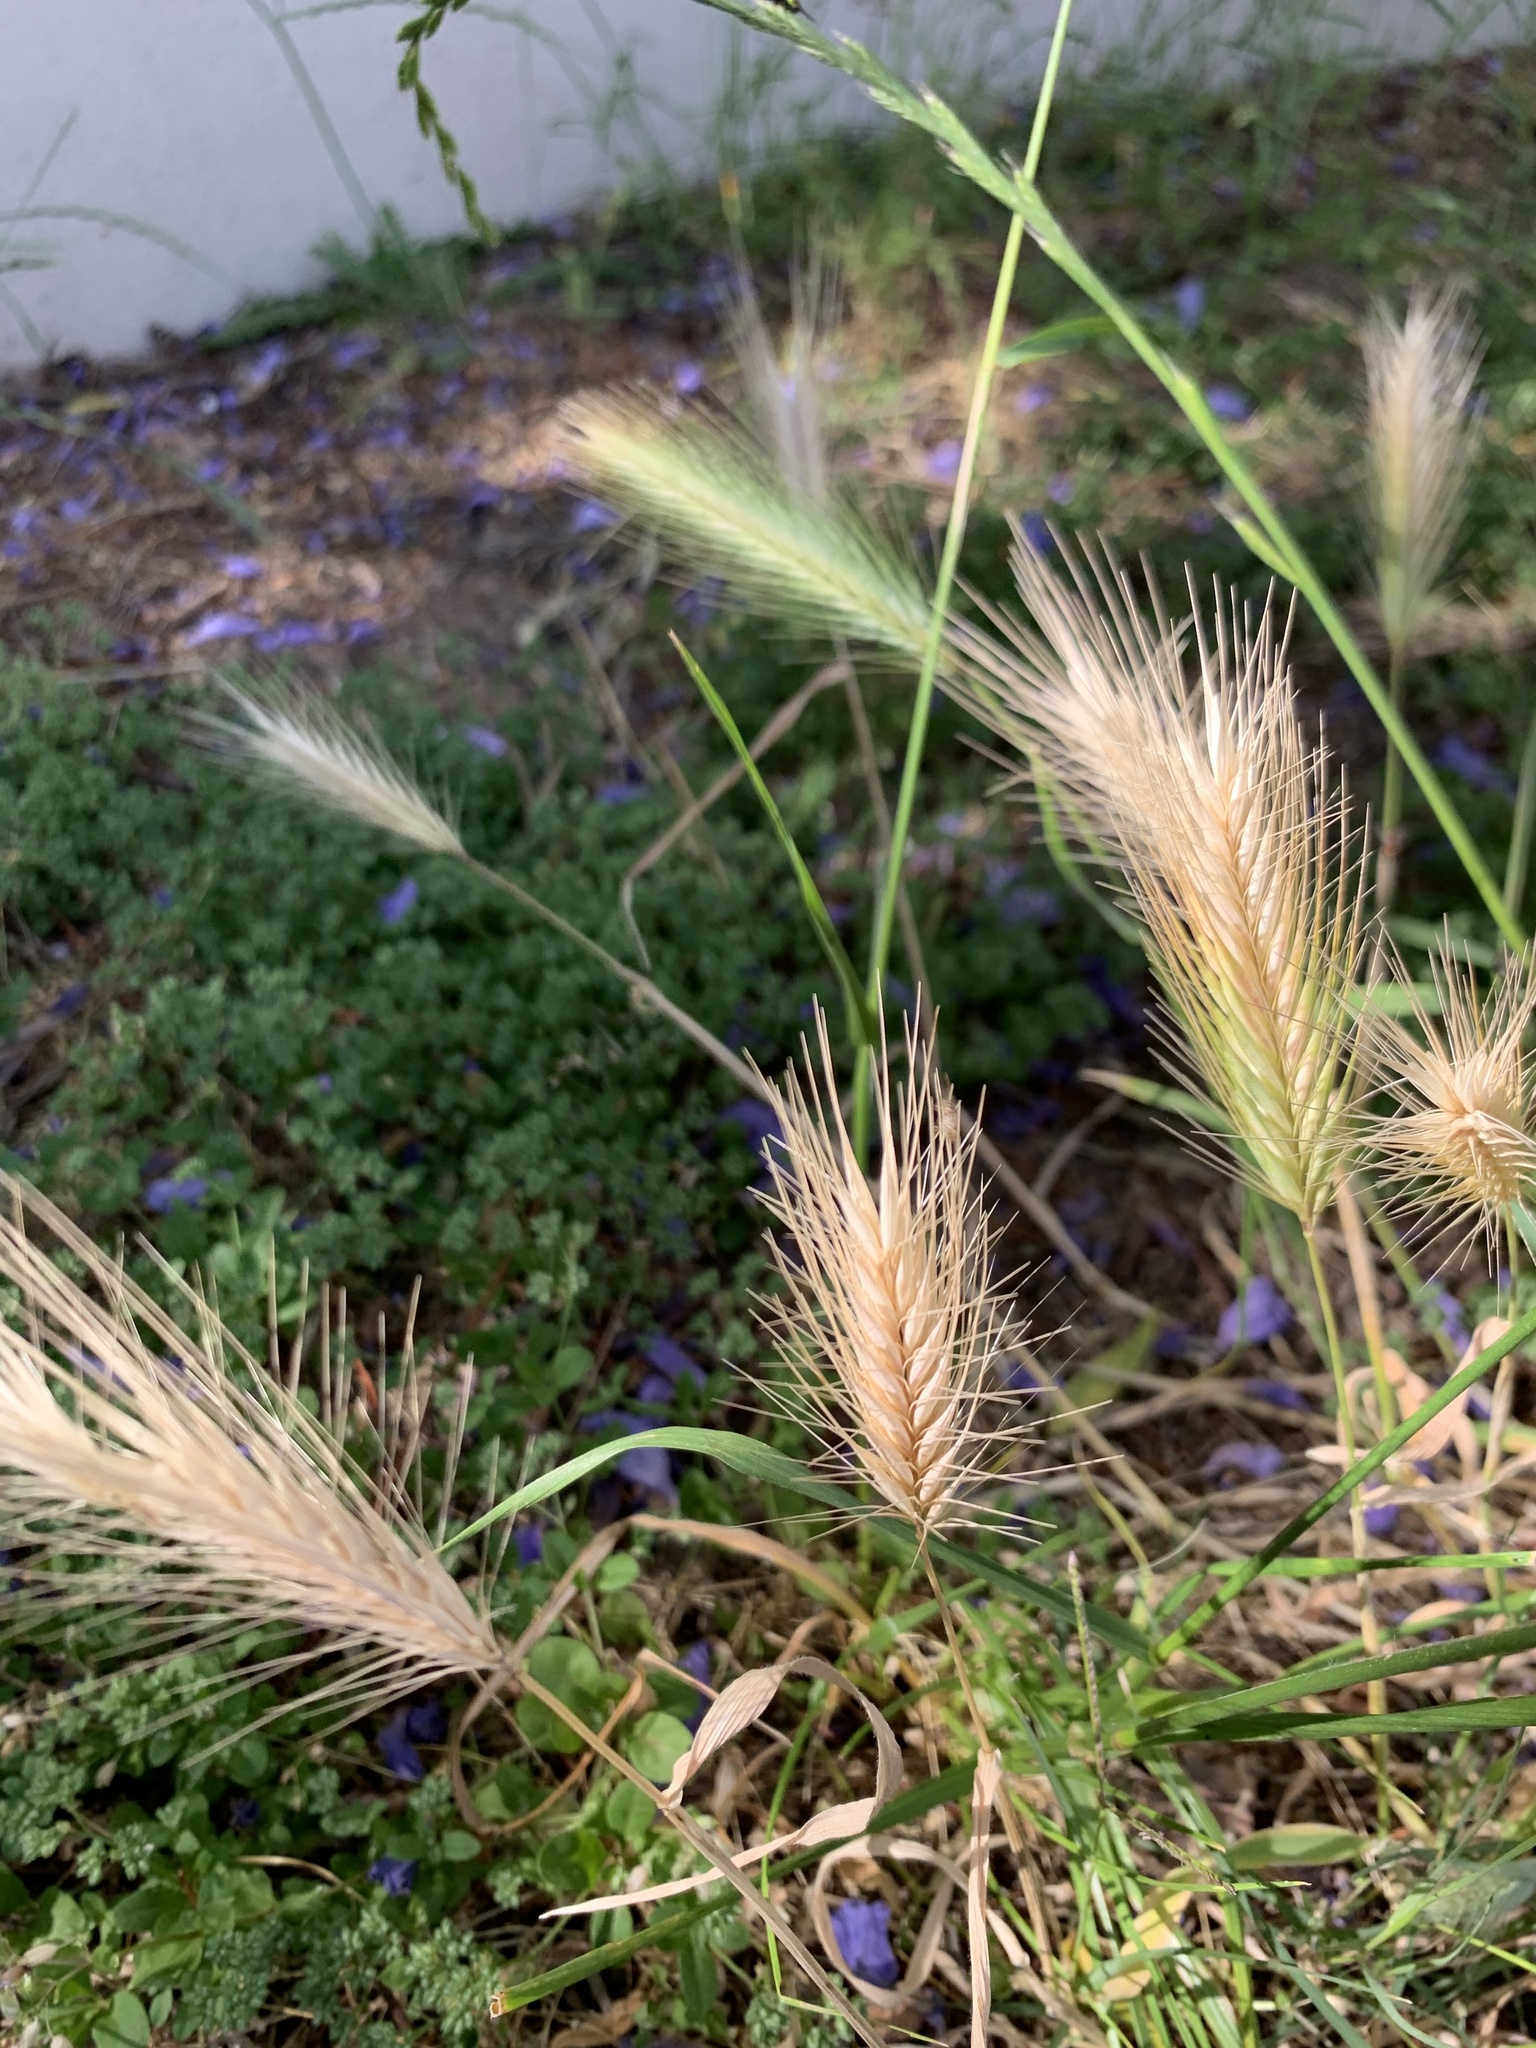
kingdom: Plantae
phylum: Tracheophyta
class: Liliopsida
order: Poales
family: Poaceae
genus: Hordeum
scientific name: Hordeum murinum
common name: Wall barley
